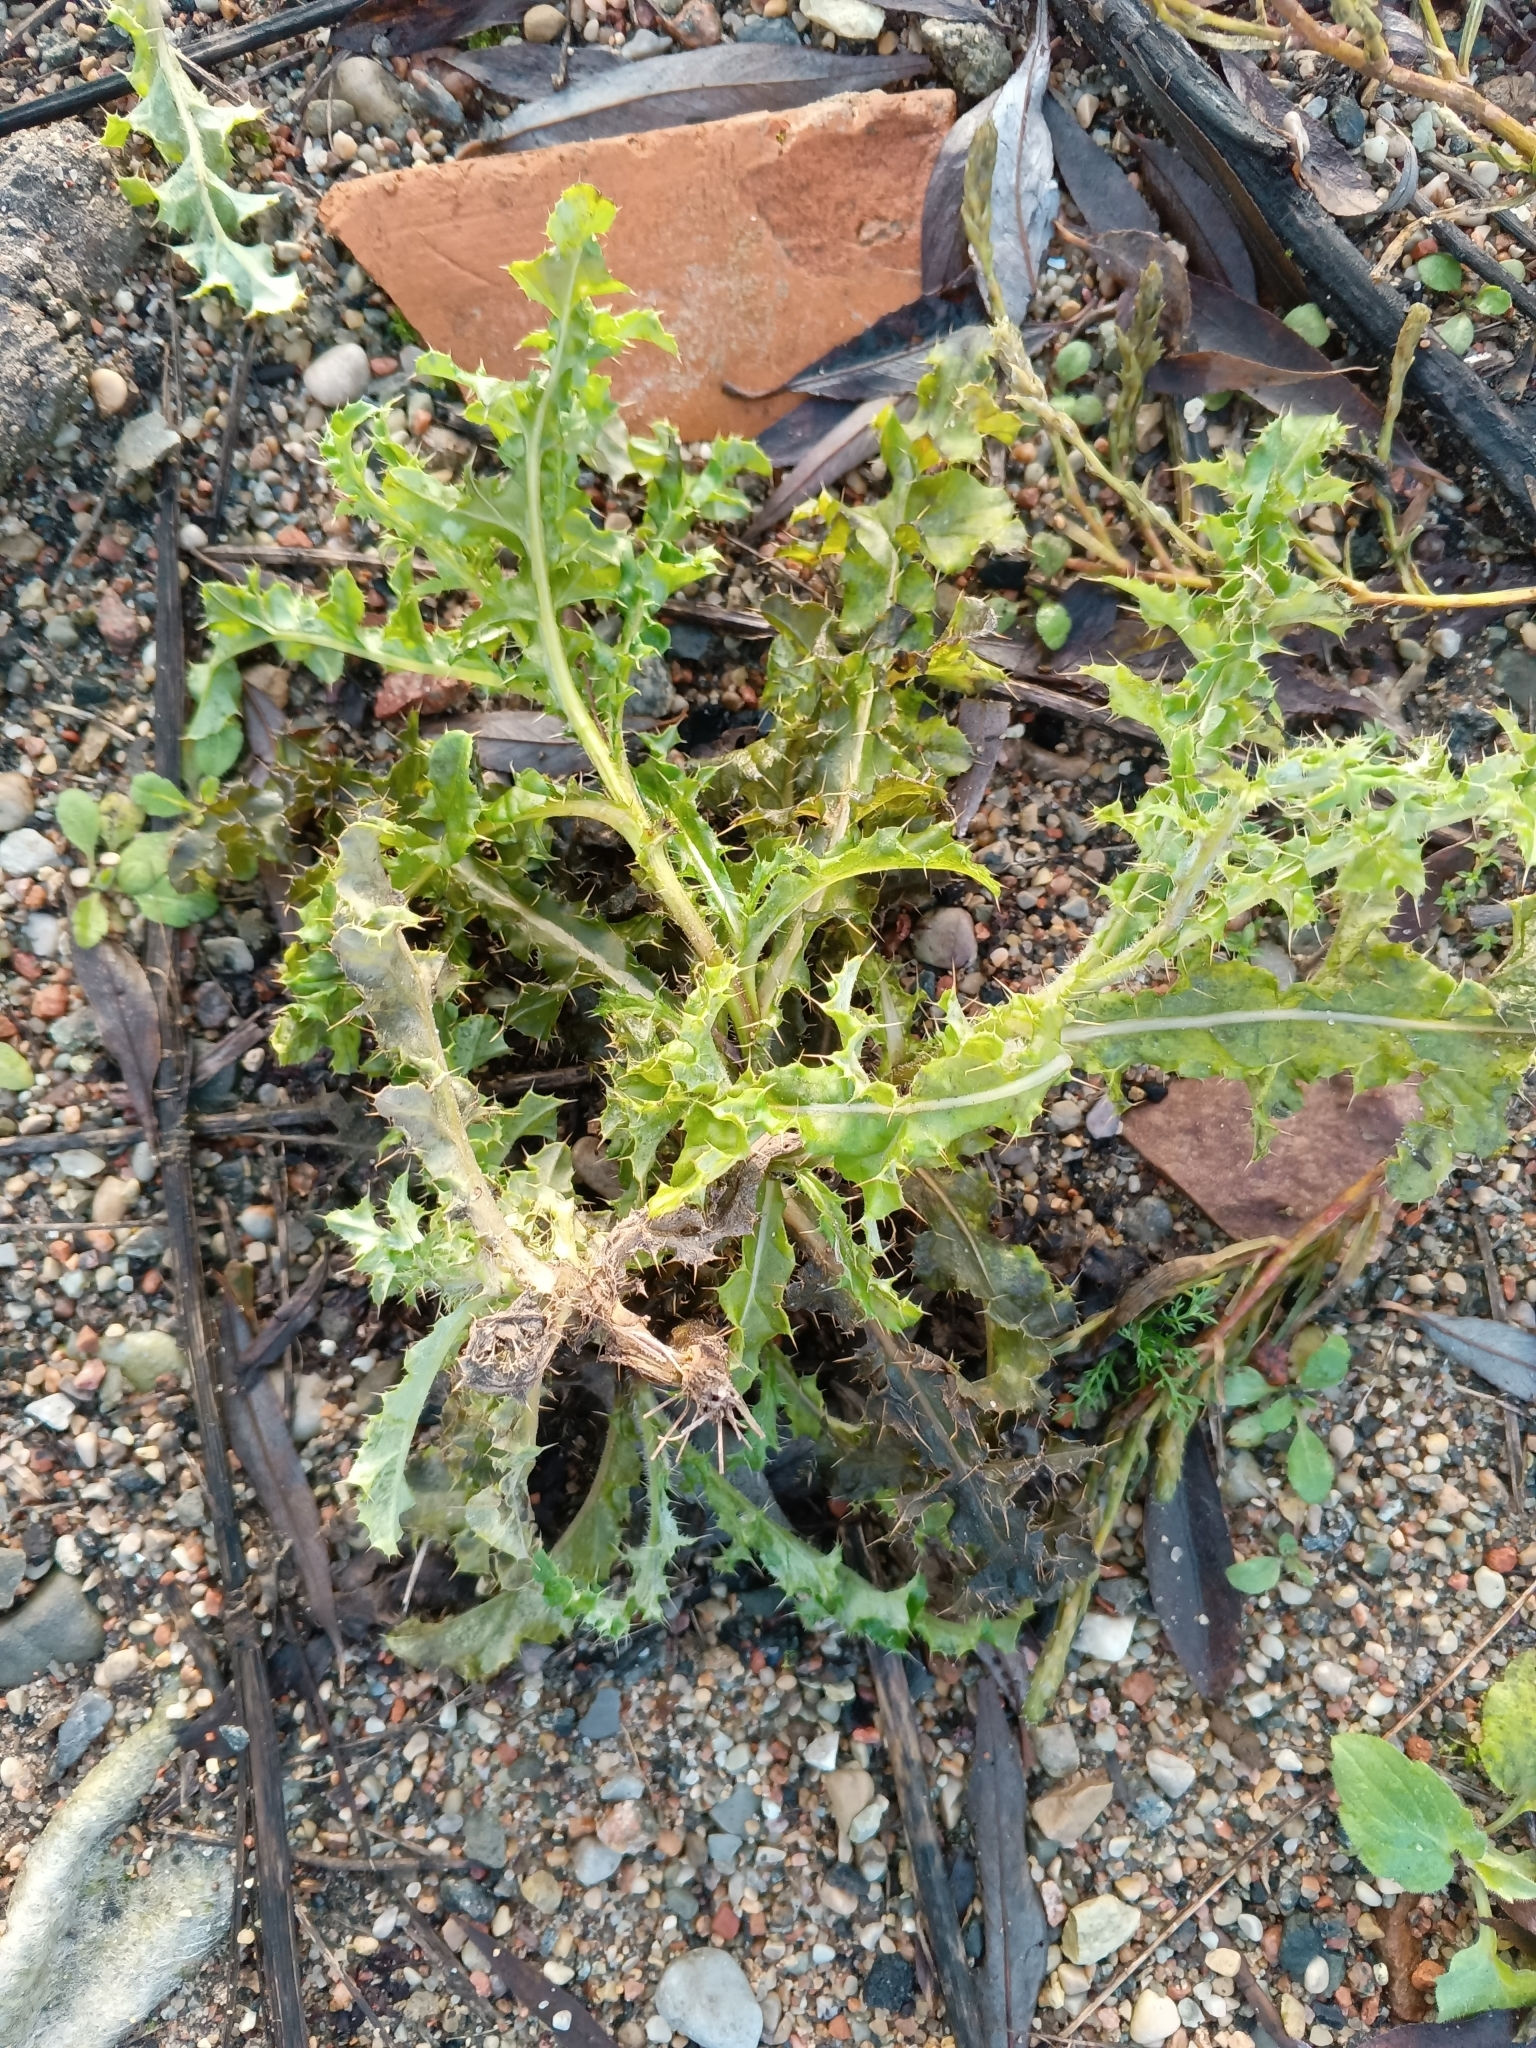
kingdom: Plantae
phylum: Tracheophyta
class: Magnoliopsida
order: Asterales
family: Asteraceae
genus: Cirsium
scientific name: Cirsium arvense
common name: Creeping thistle
